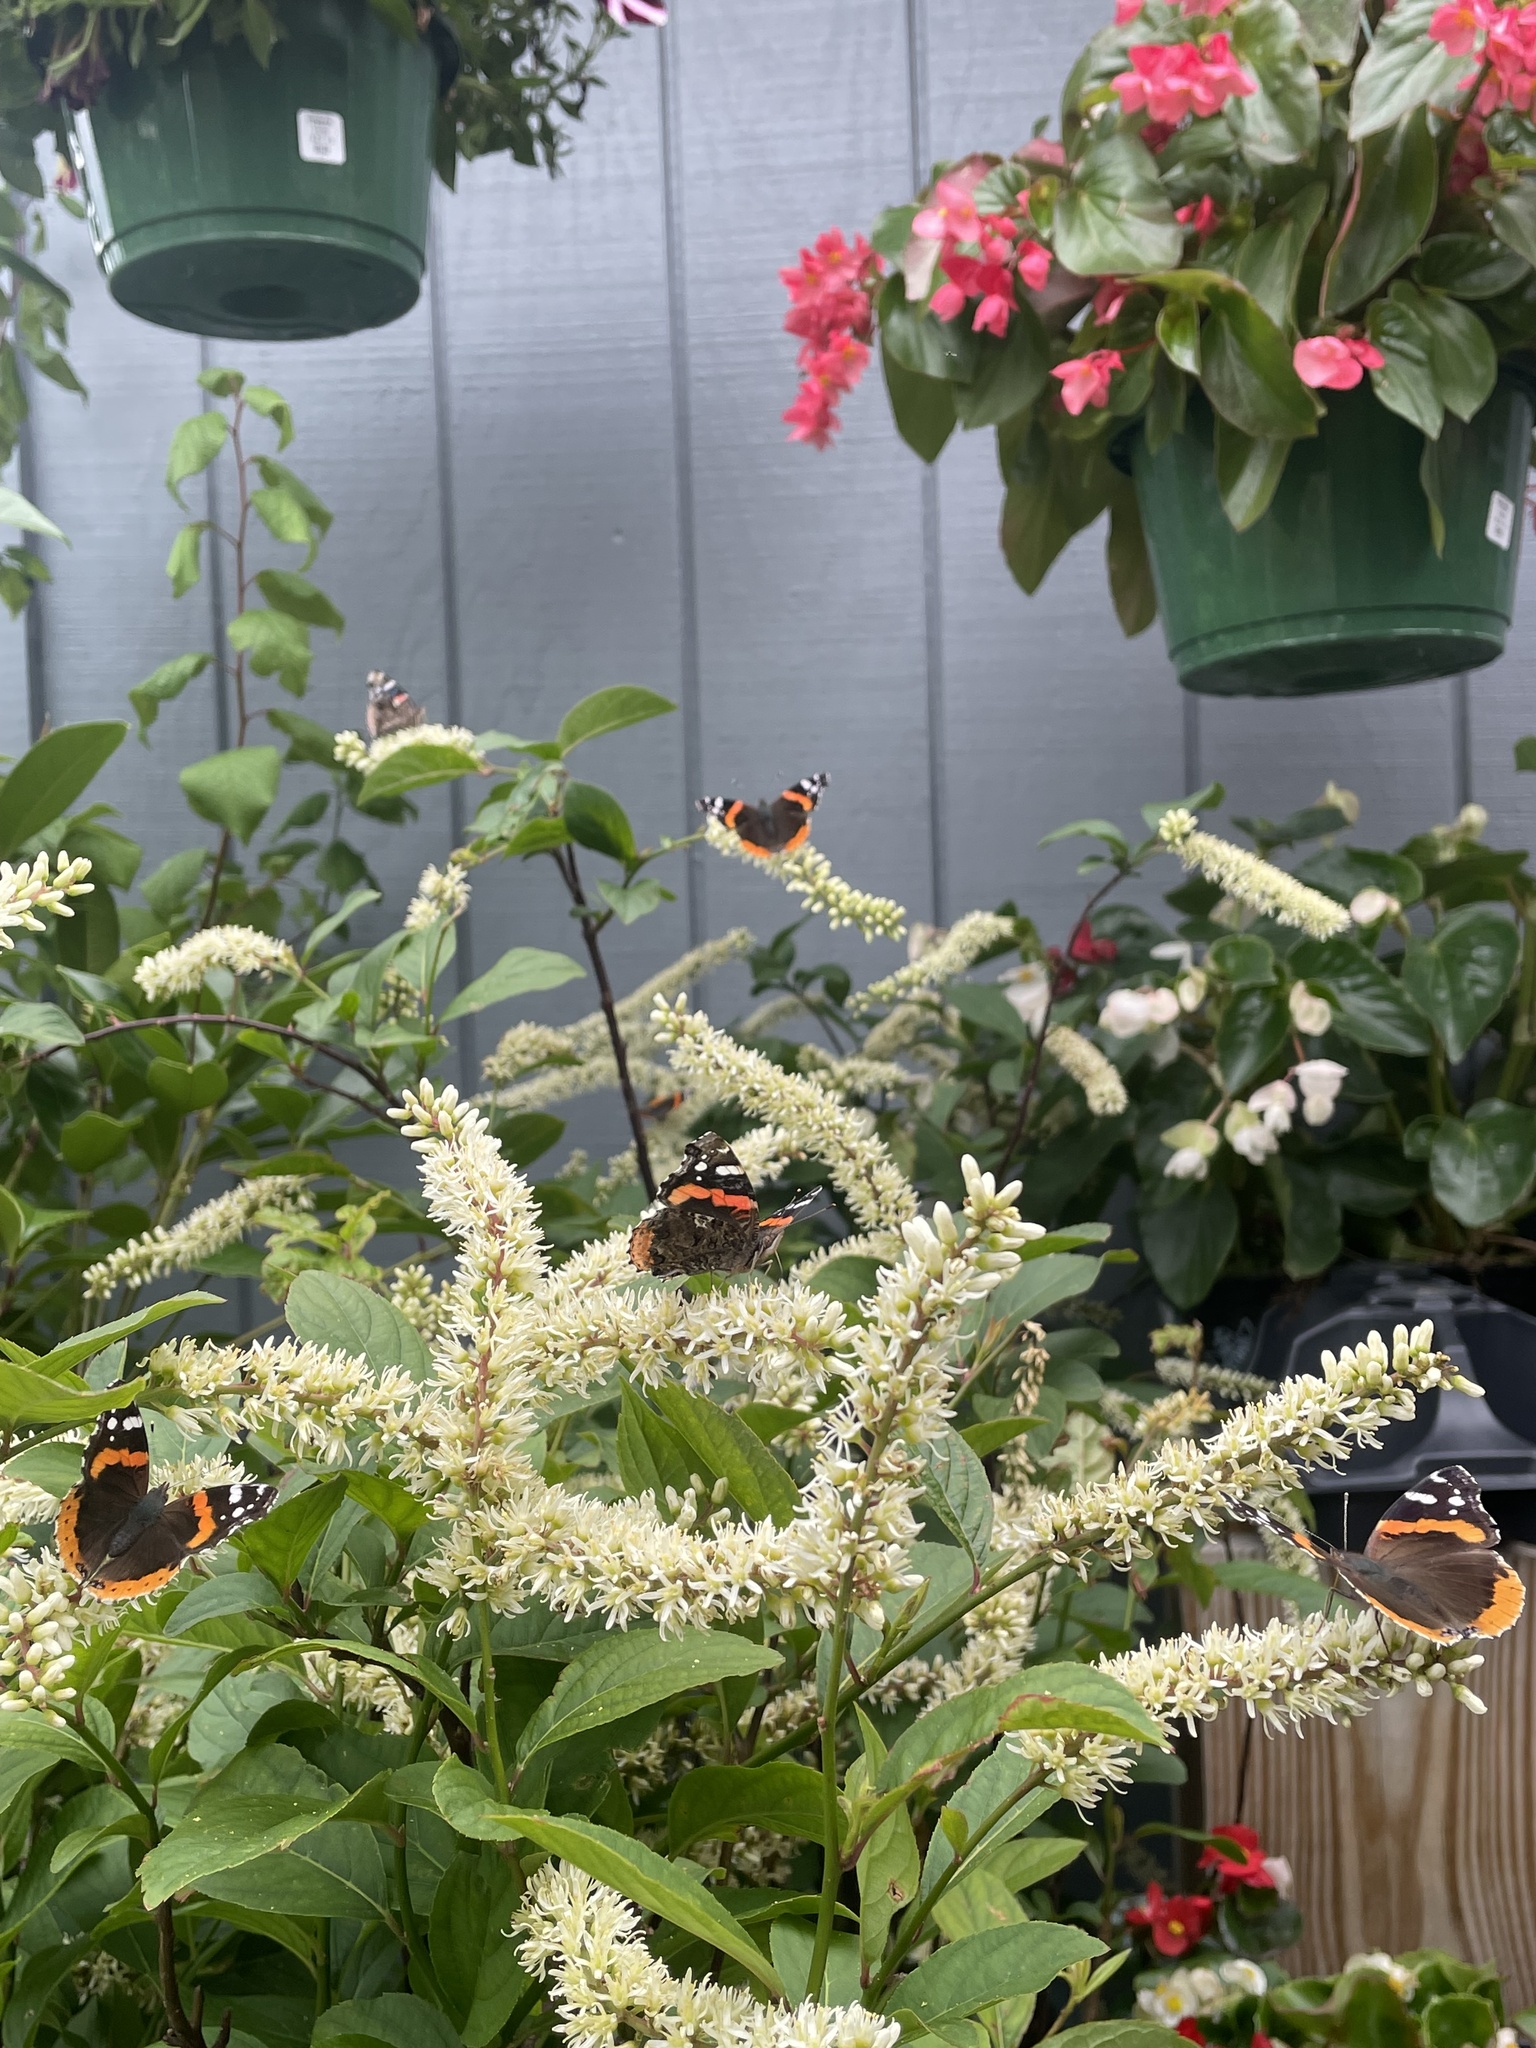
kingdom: Animalia
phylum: Arthropoda
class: Insecta
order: Lepidoptera
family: Nymphalidae
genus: Vanessa
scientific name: Vanessa atalanta
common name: Red admiral
